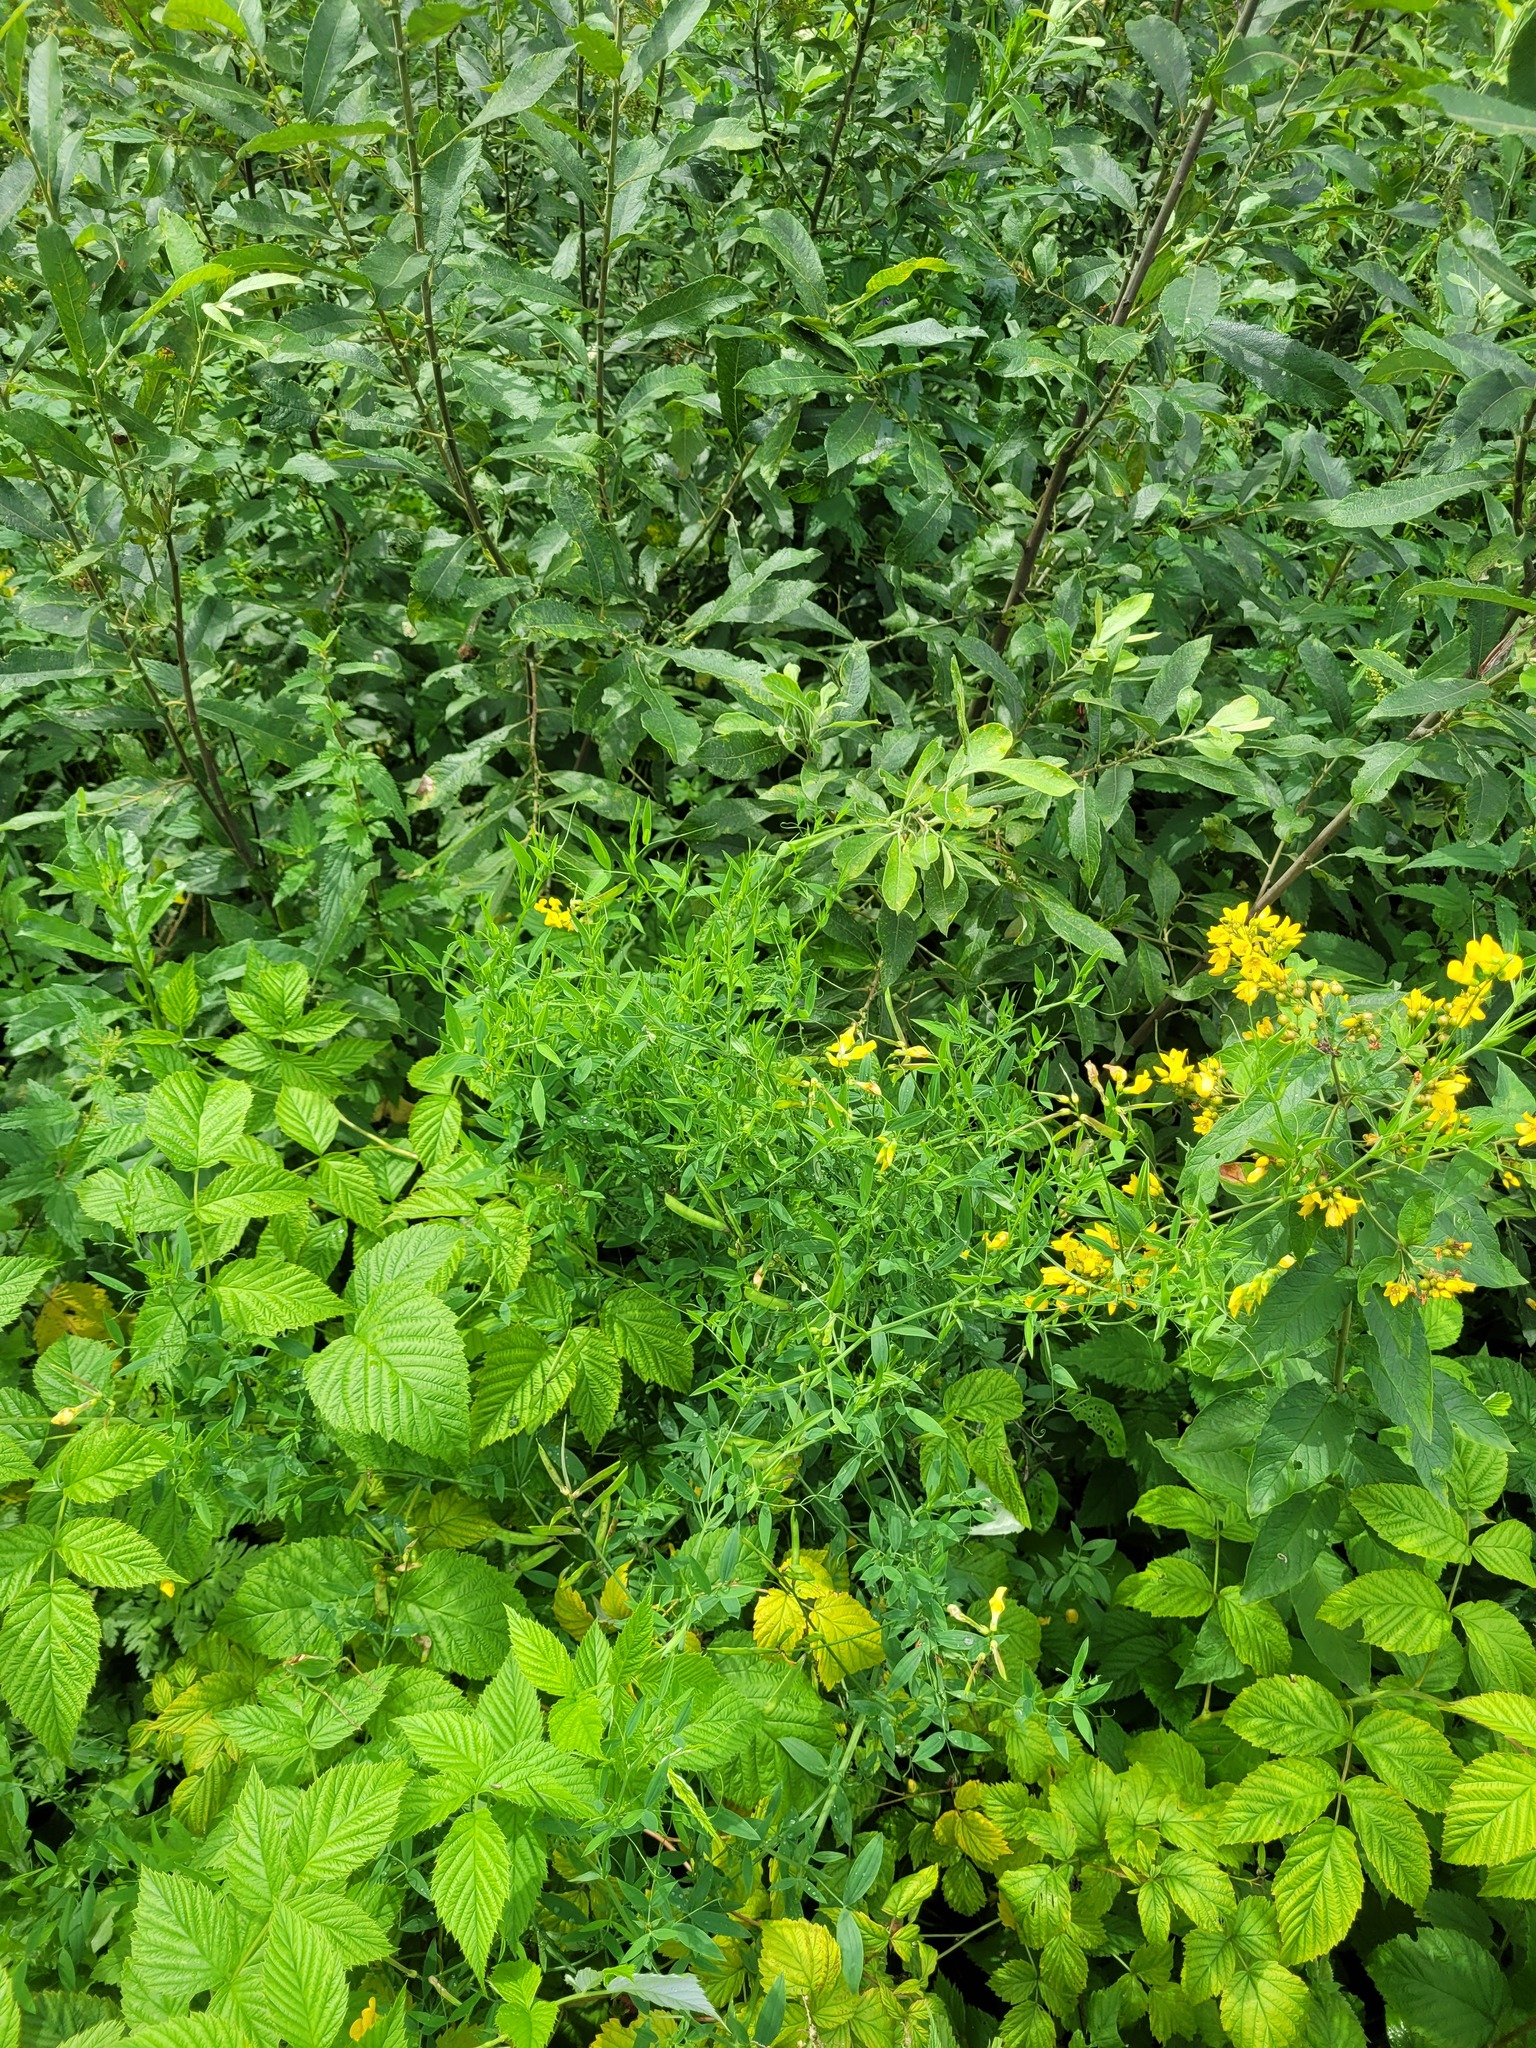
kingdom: Plantae
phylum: Tracheophyta
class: Magnoliopsida
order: Fabales
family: Fabaceae
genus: Lathyrus
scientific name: Lathyrus pratensis
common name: Meadow vetchling
